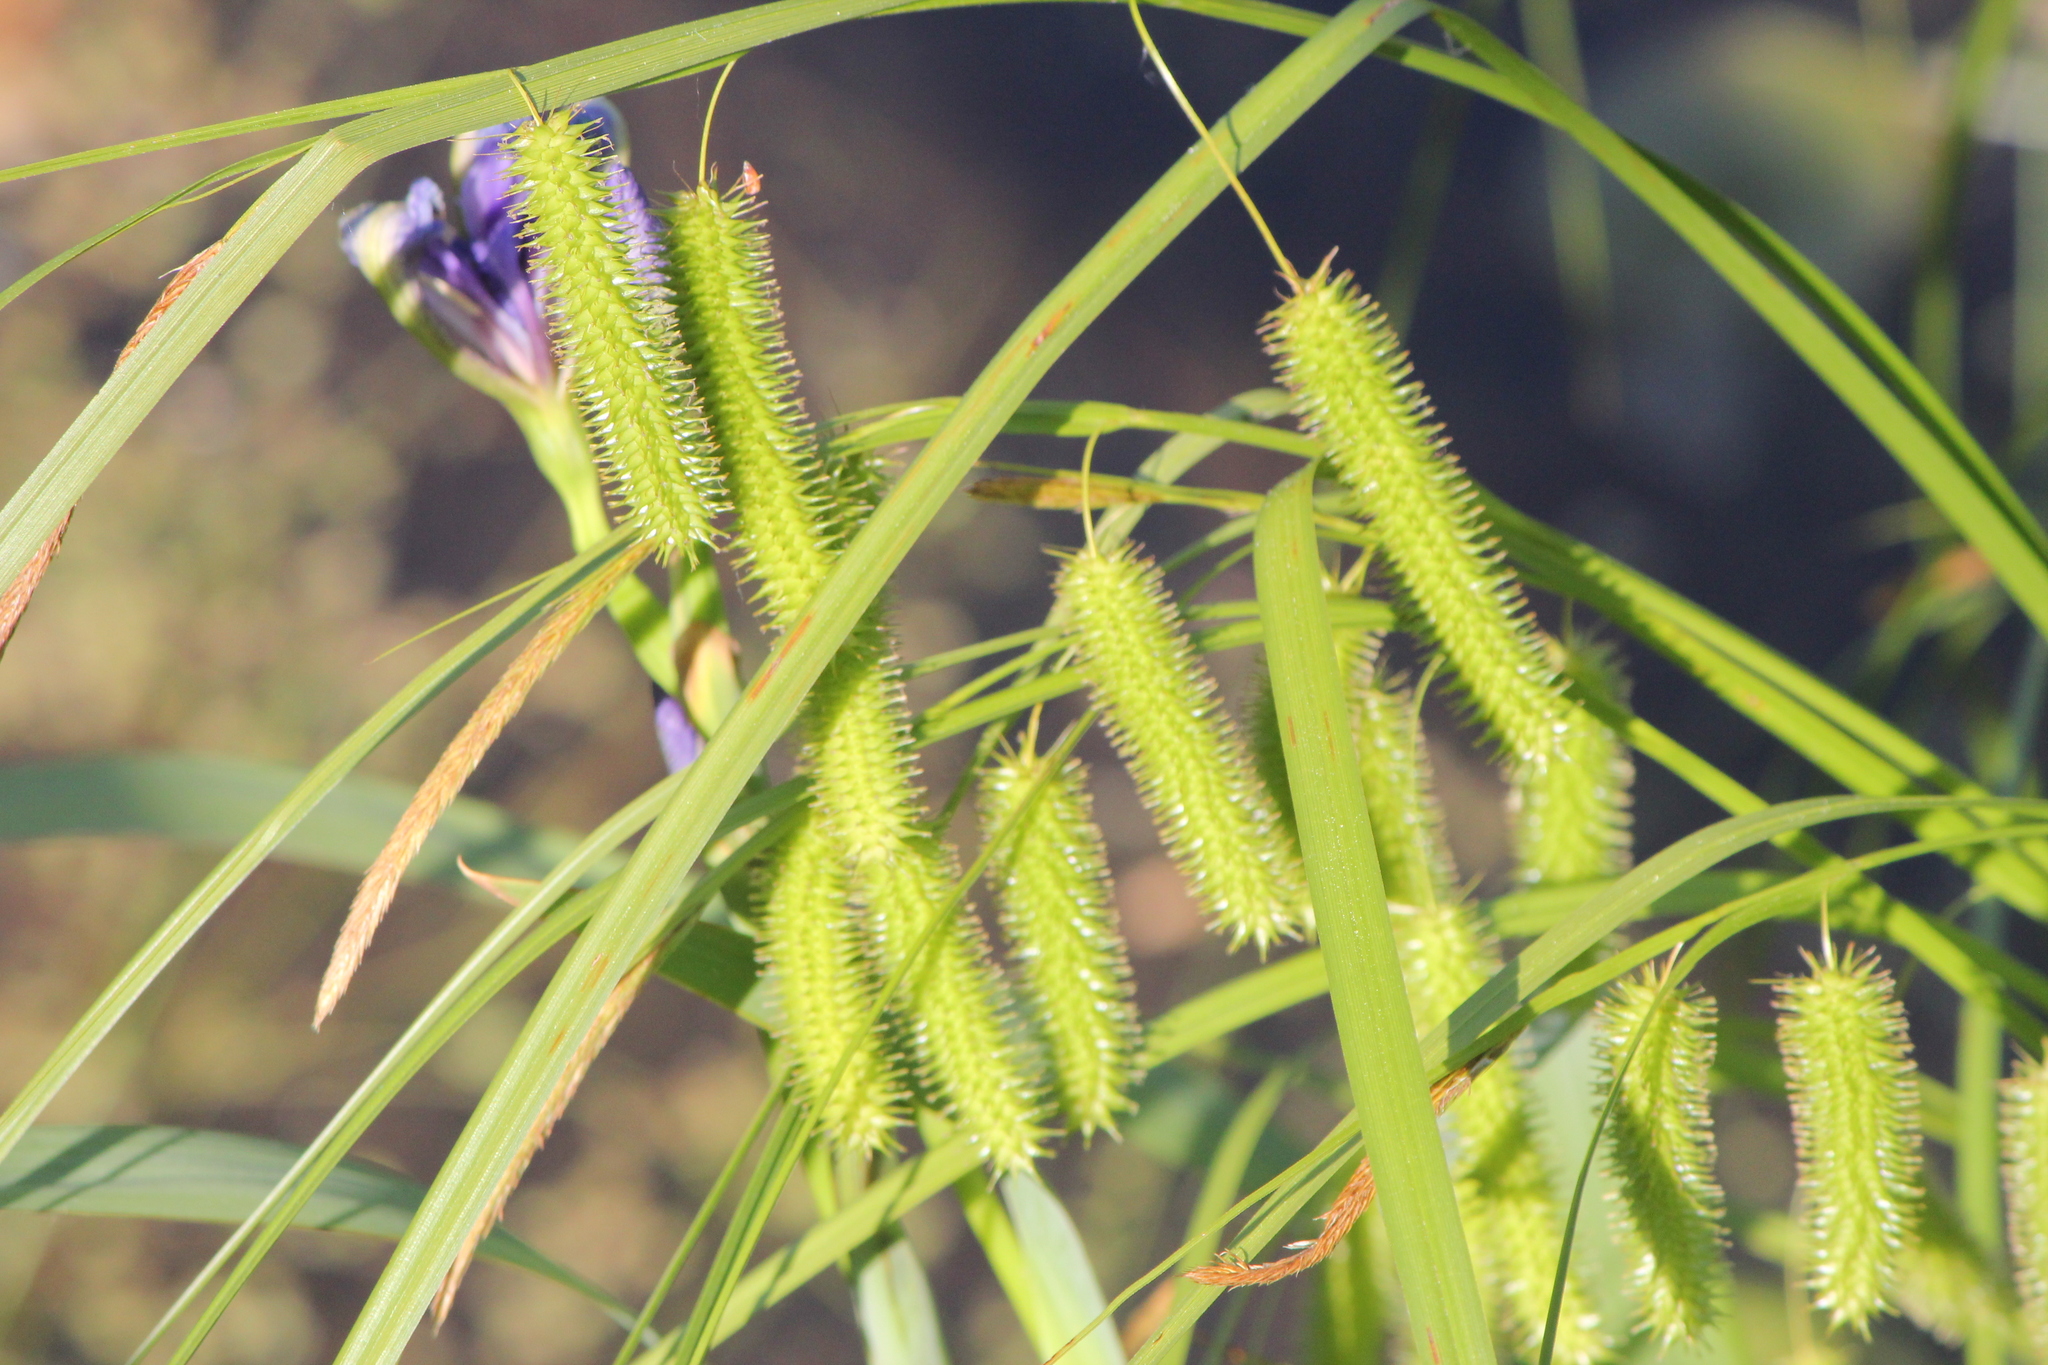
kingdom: Plantae
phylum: Tracheophyta
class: Liliopsida
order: Poales
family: Cyperaceae
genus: Carex
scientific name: Carex pseudocyperus
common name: Cyperus sedge
